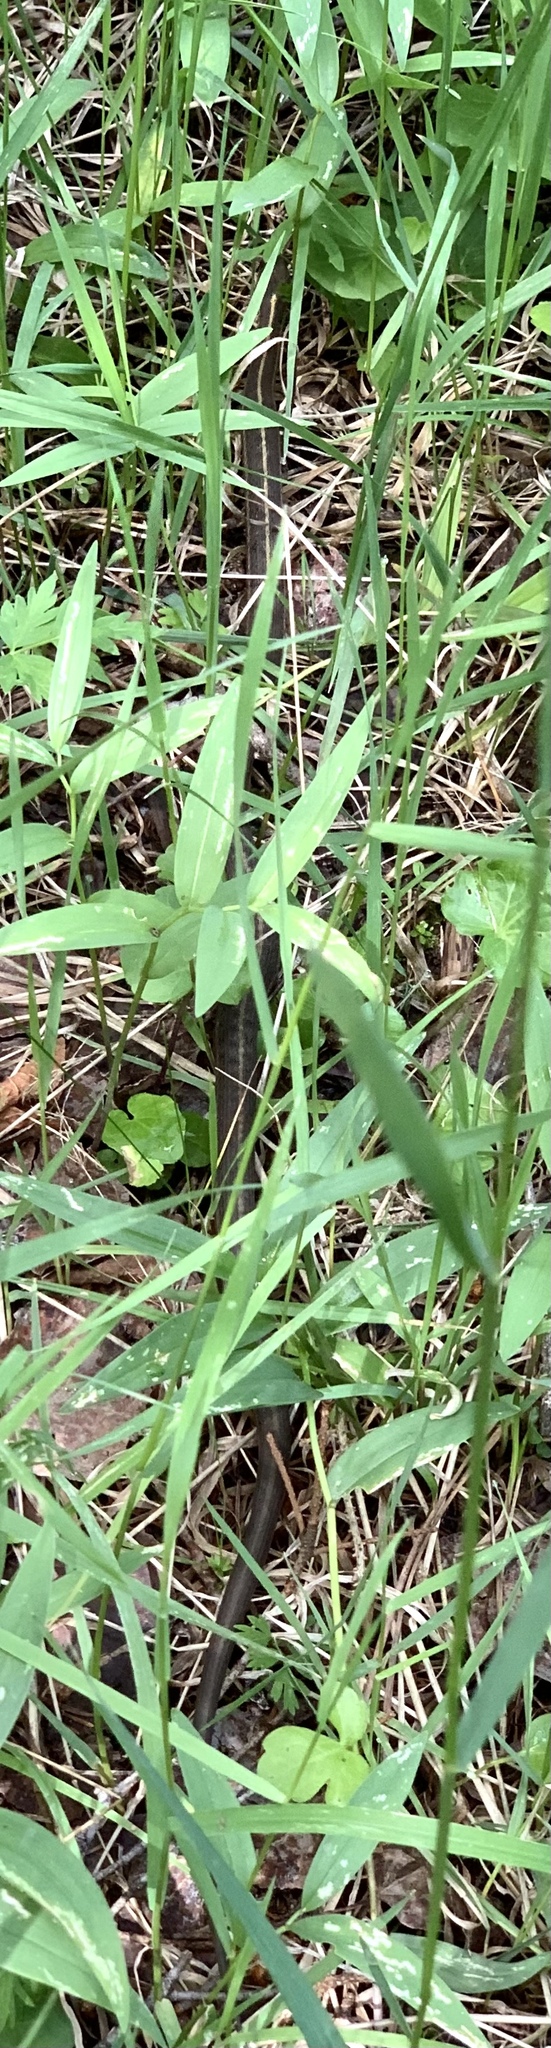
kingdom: Animalia
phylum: Chordata
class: Squamata
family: Colubridae
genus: Thamnophis
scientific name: Thamnophis elegans
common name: Western terrestrial garter snake
